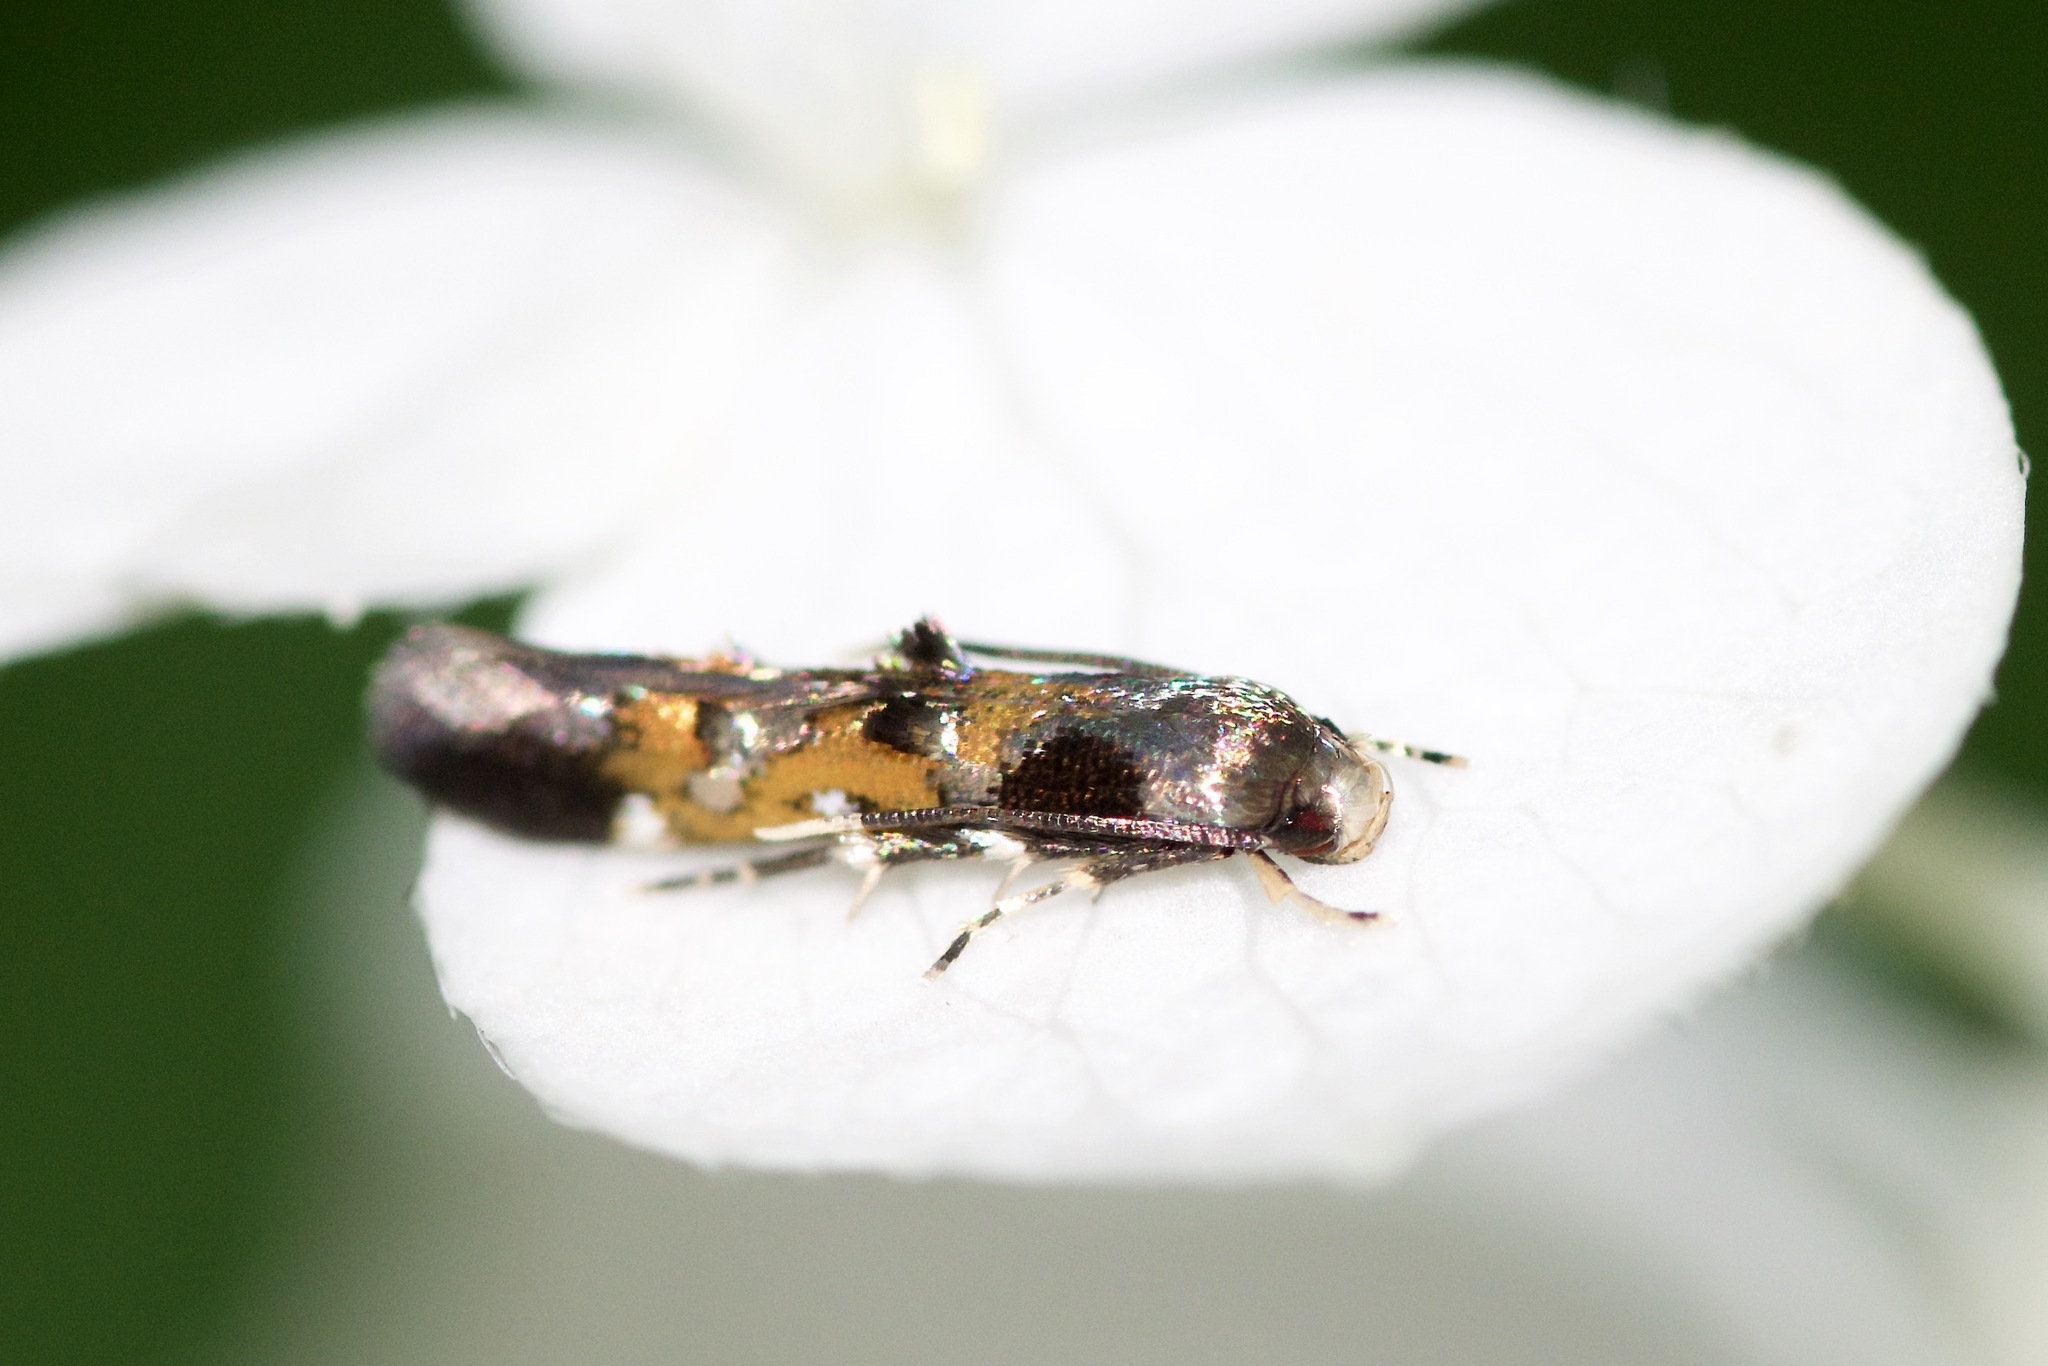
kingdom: Animalia
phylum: Arthropoda
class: Insecta
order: Lepidoptera
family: Momphidae
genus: Mompha
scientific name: Mompha terminella
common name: Enchanters cosmet
